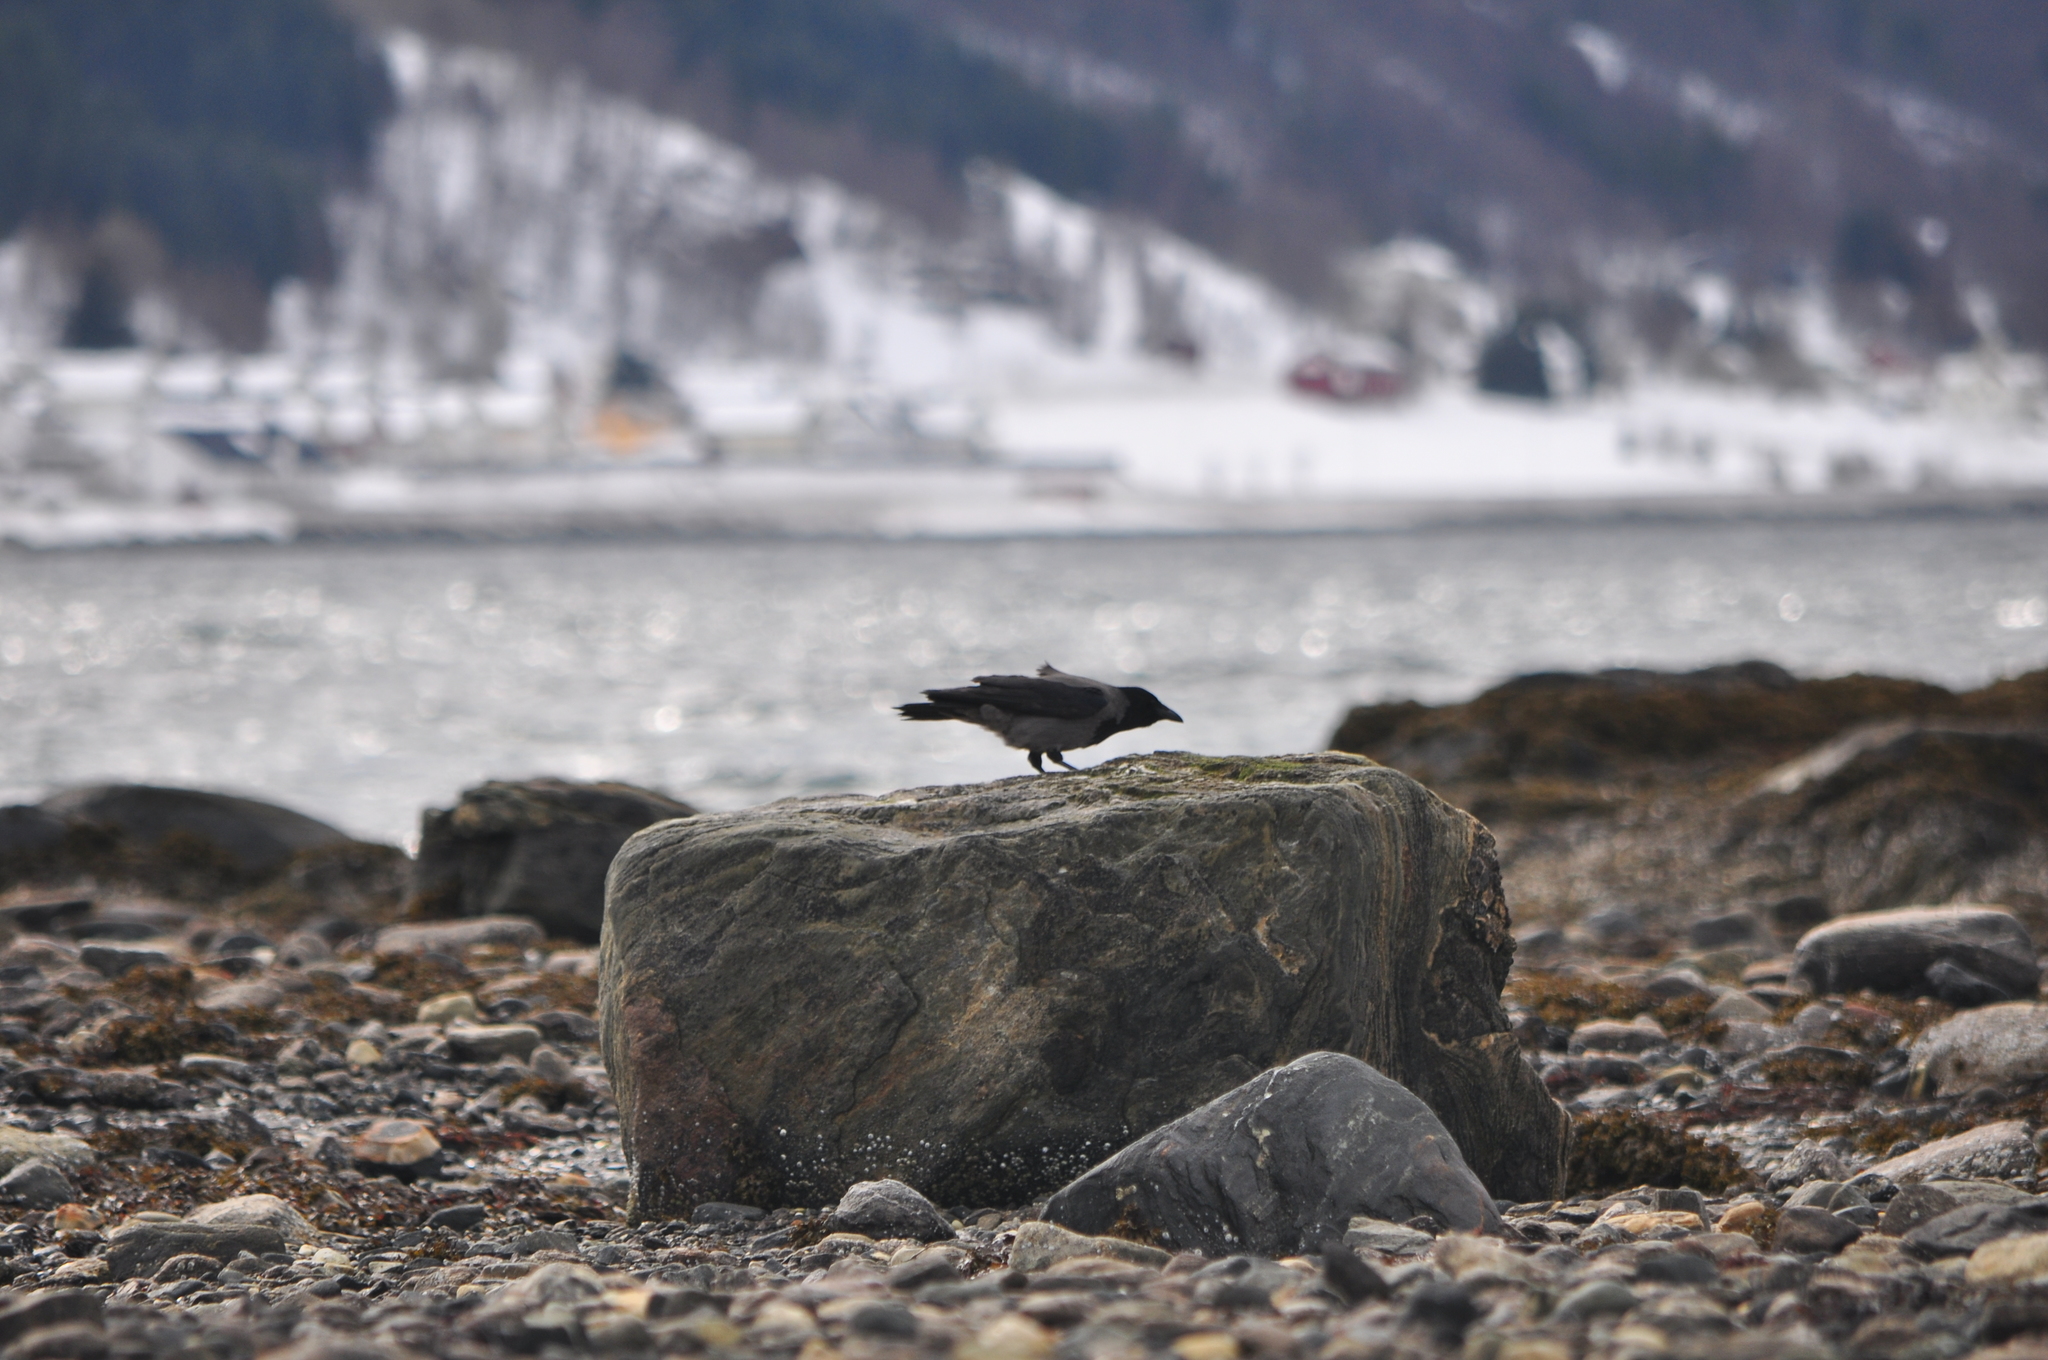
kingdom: Animalia
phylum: Chordata
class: Aves
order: Passeriformes
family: Corvidae
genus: Corvus
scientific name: Corvus cornix
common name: Hooded crow
